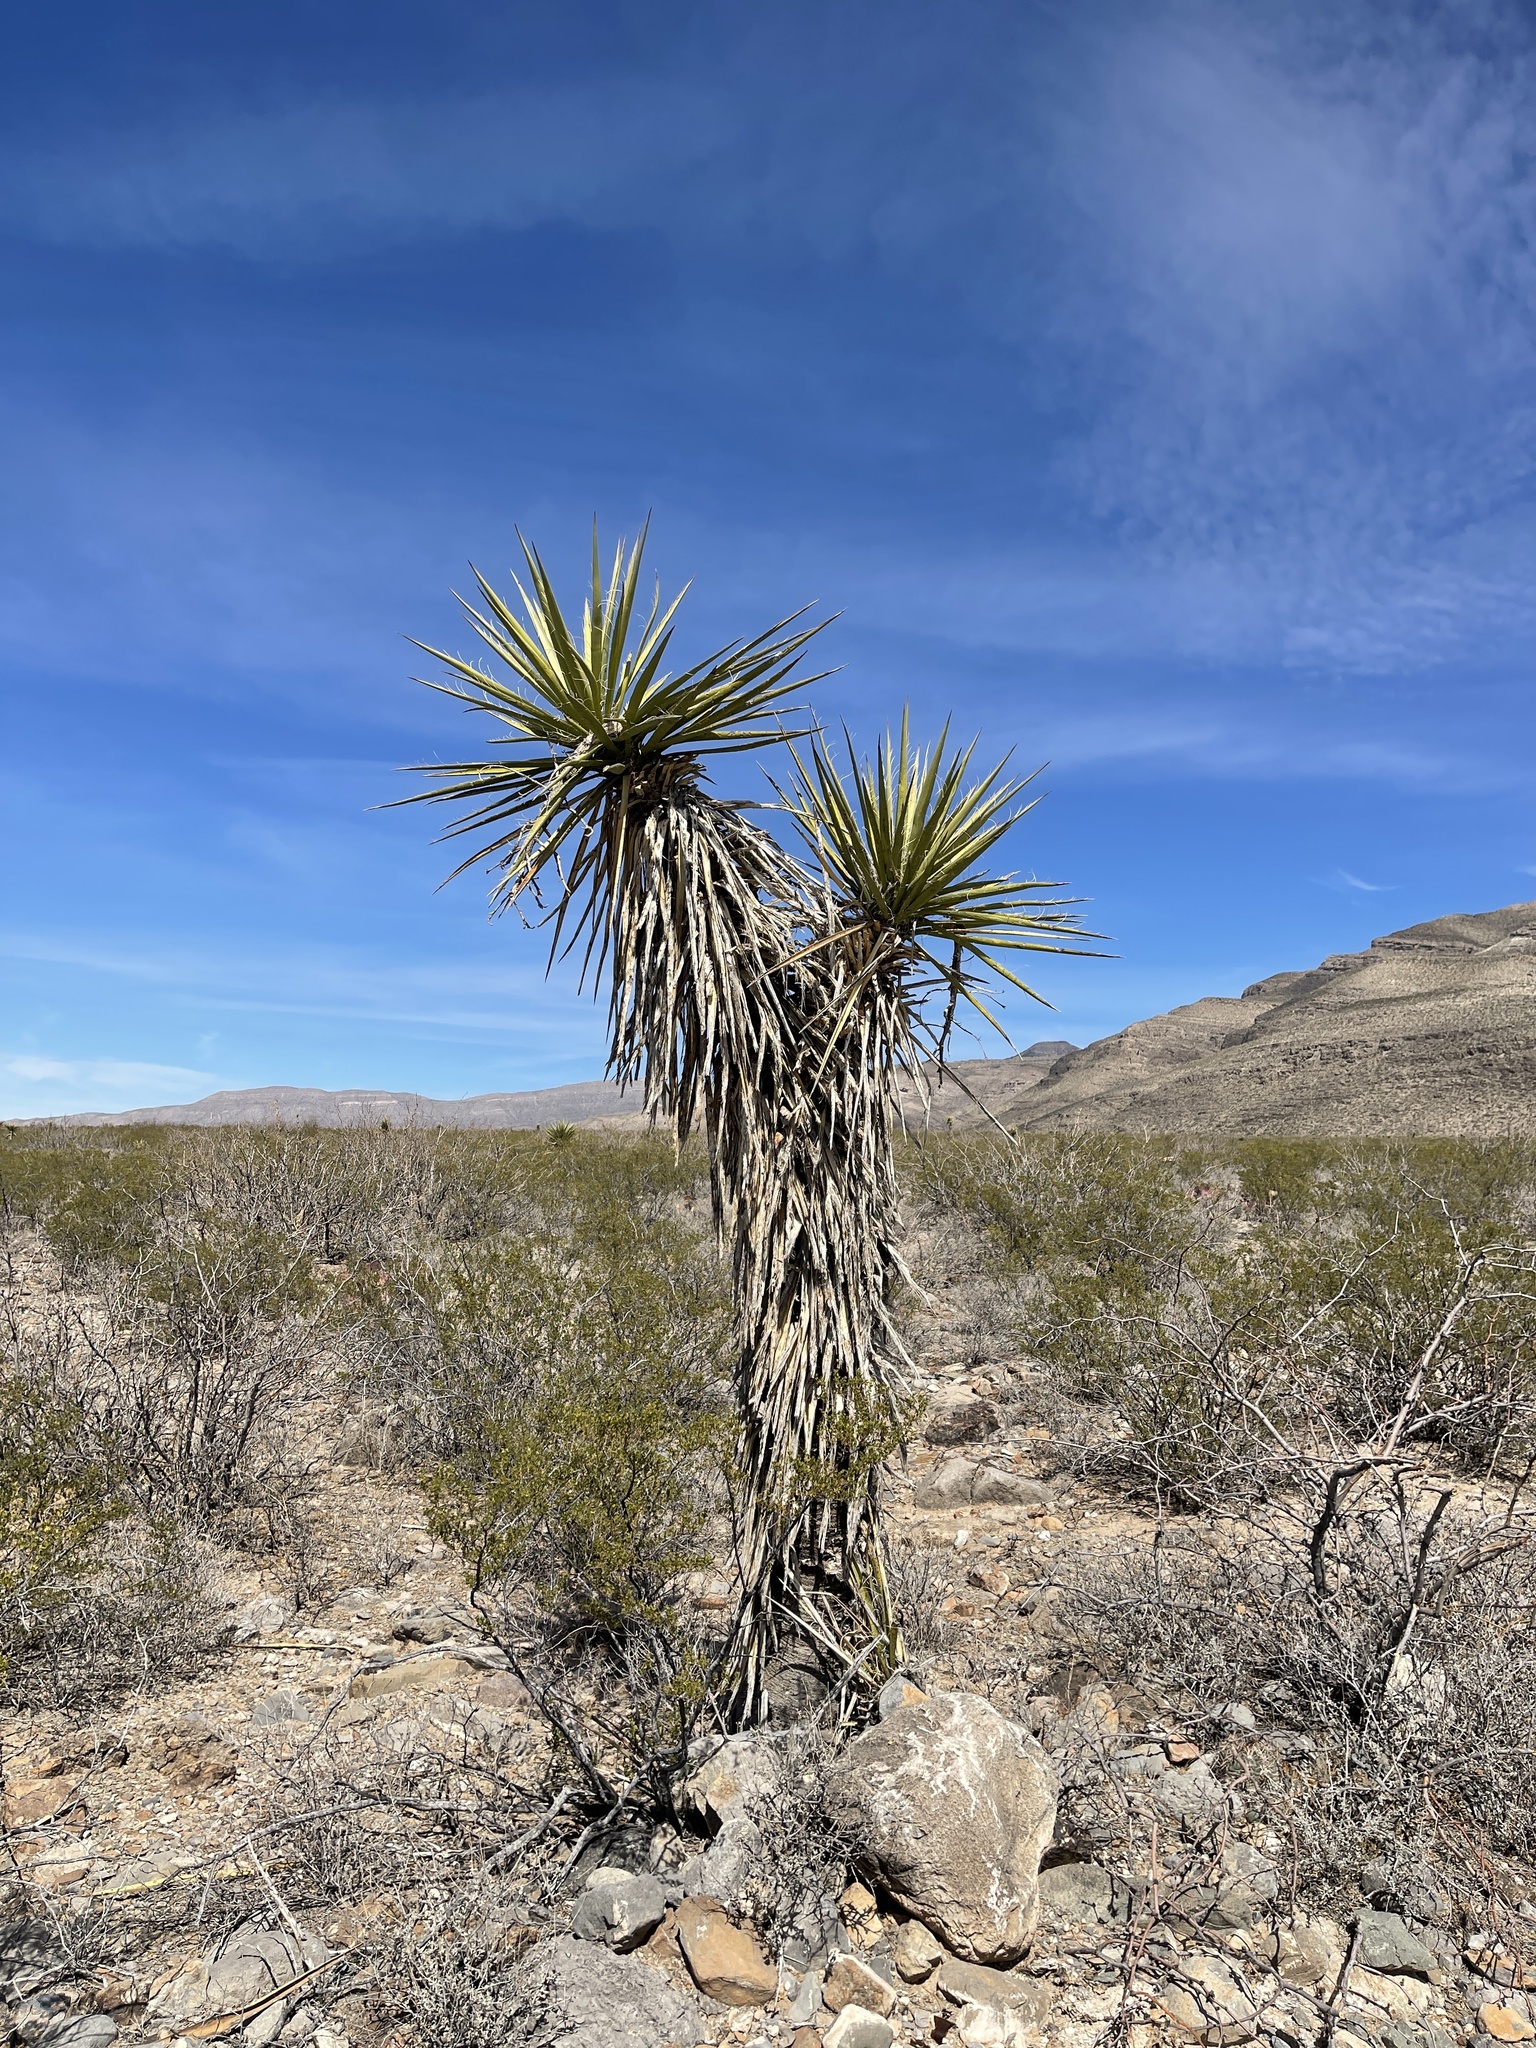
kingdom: Plantae
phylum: Tracheophyta
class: Liliopsida
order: Asparagales
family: Asparagaceae
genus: Yucca
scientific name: Yucca treculiana
